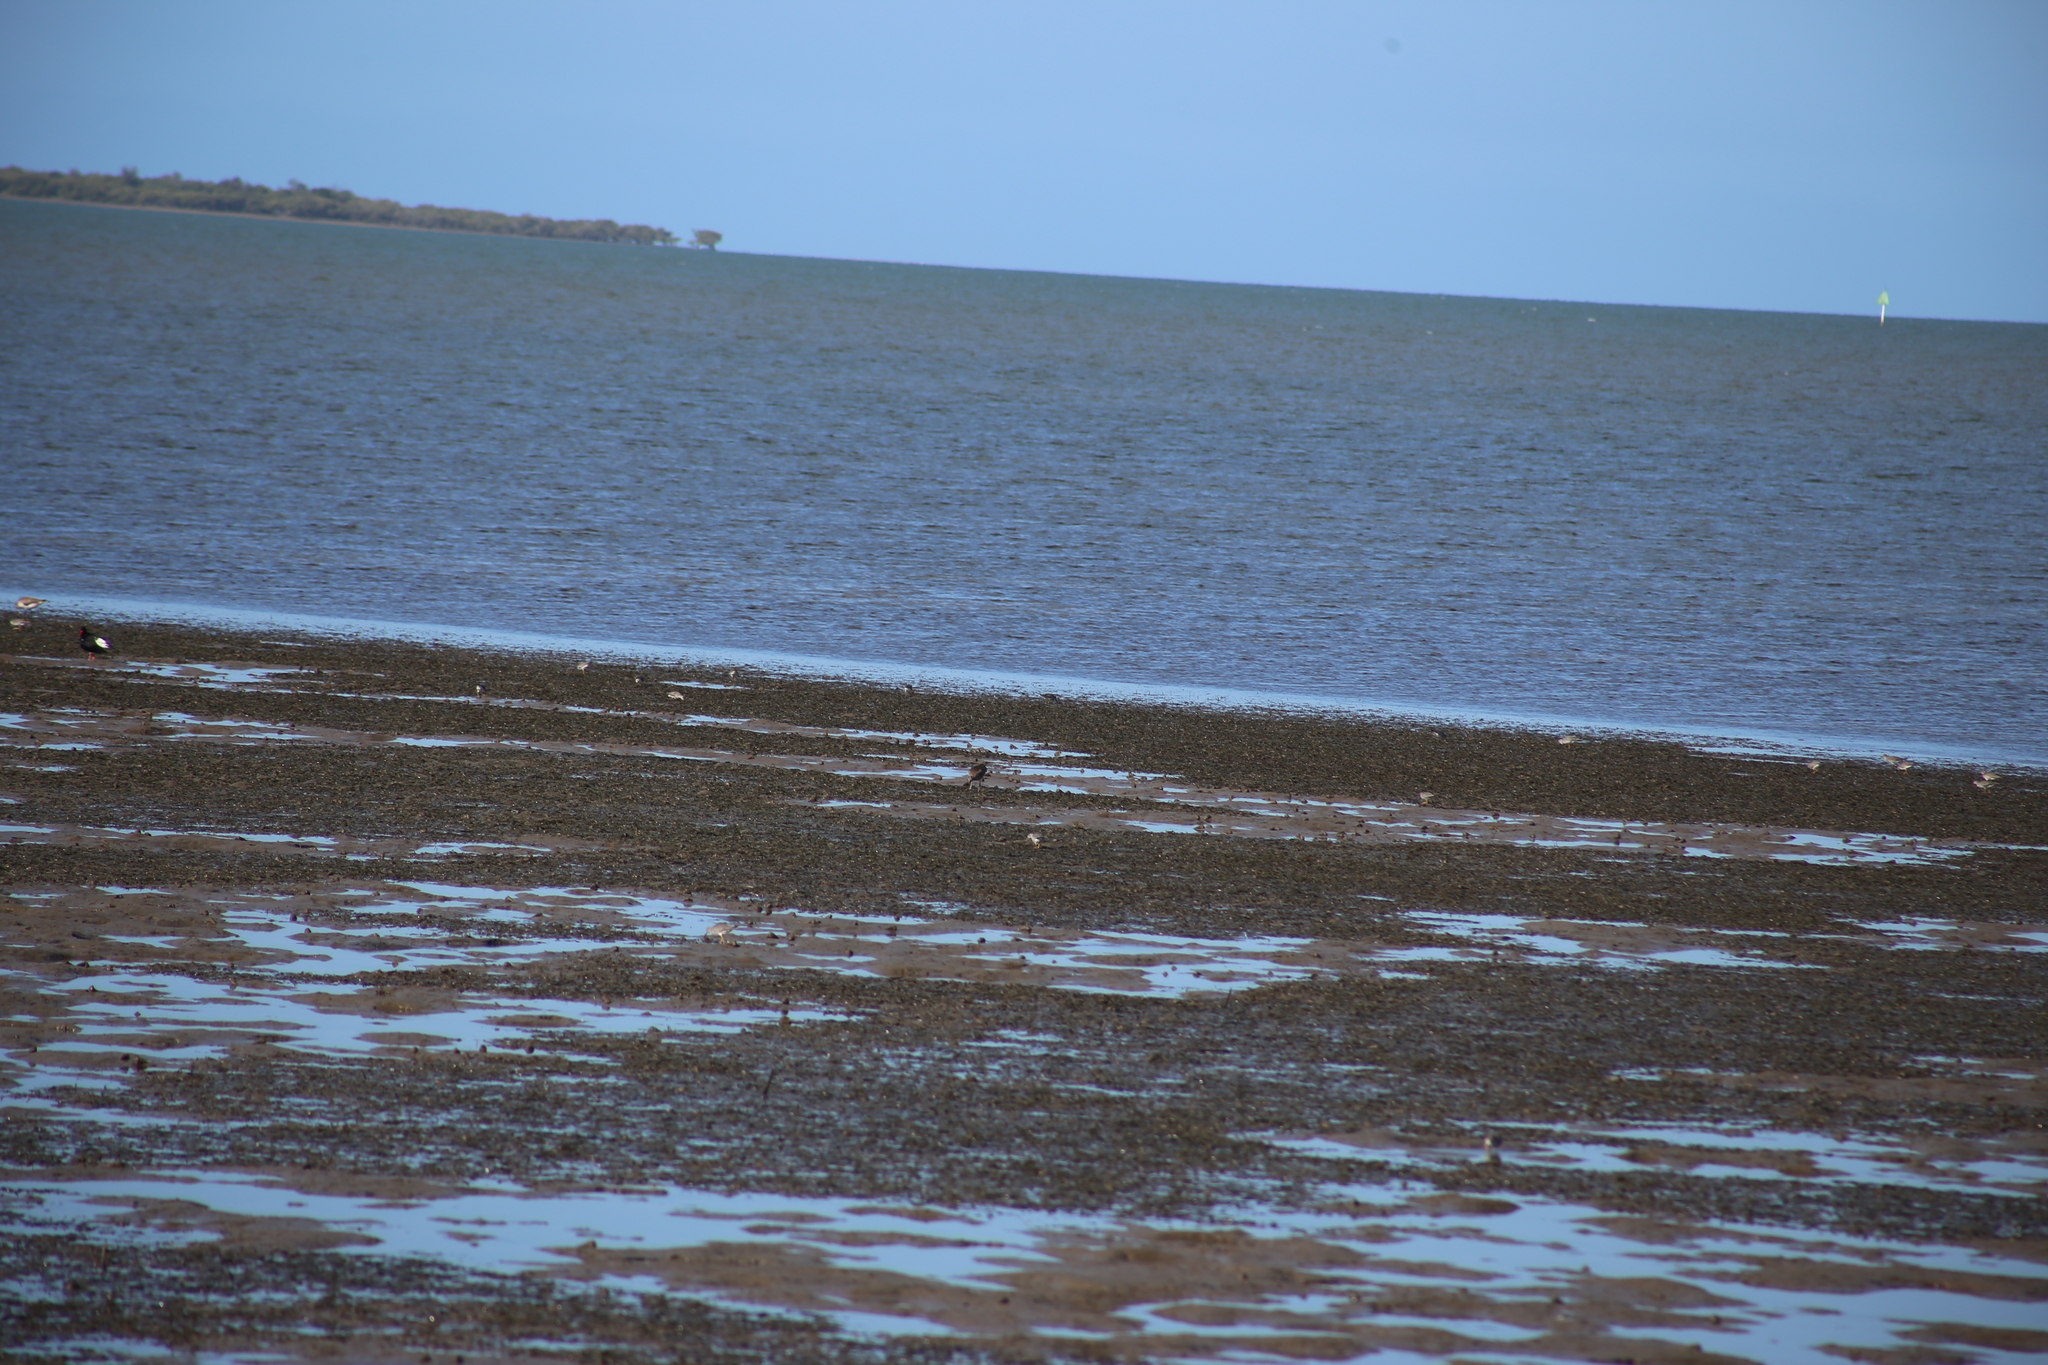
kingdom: Animalia
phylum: Chordata
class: Aves
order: Charadriiformes
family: Scolopacidae
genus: Tringa
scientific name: Tringa brevipes
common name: Grey-tailed tattler
